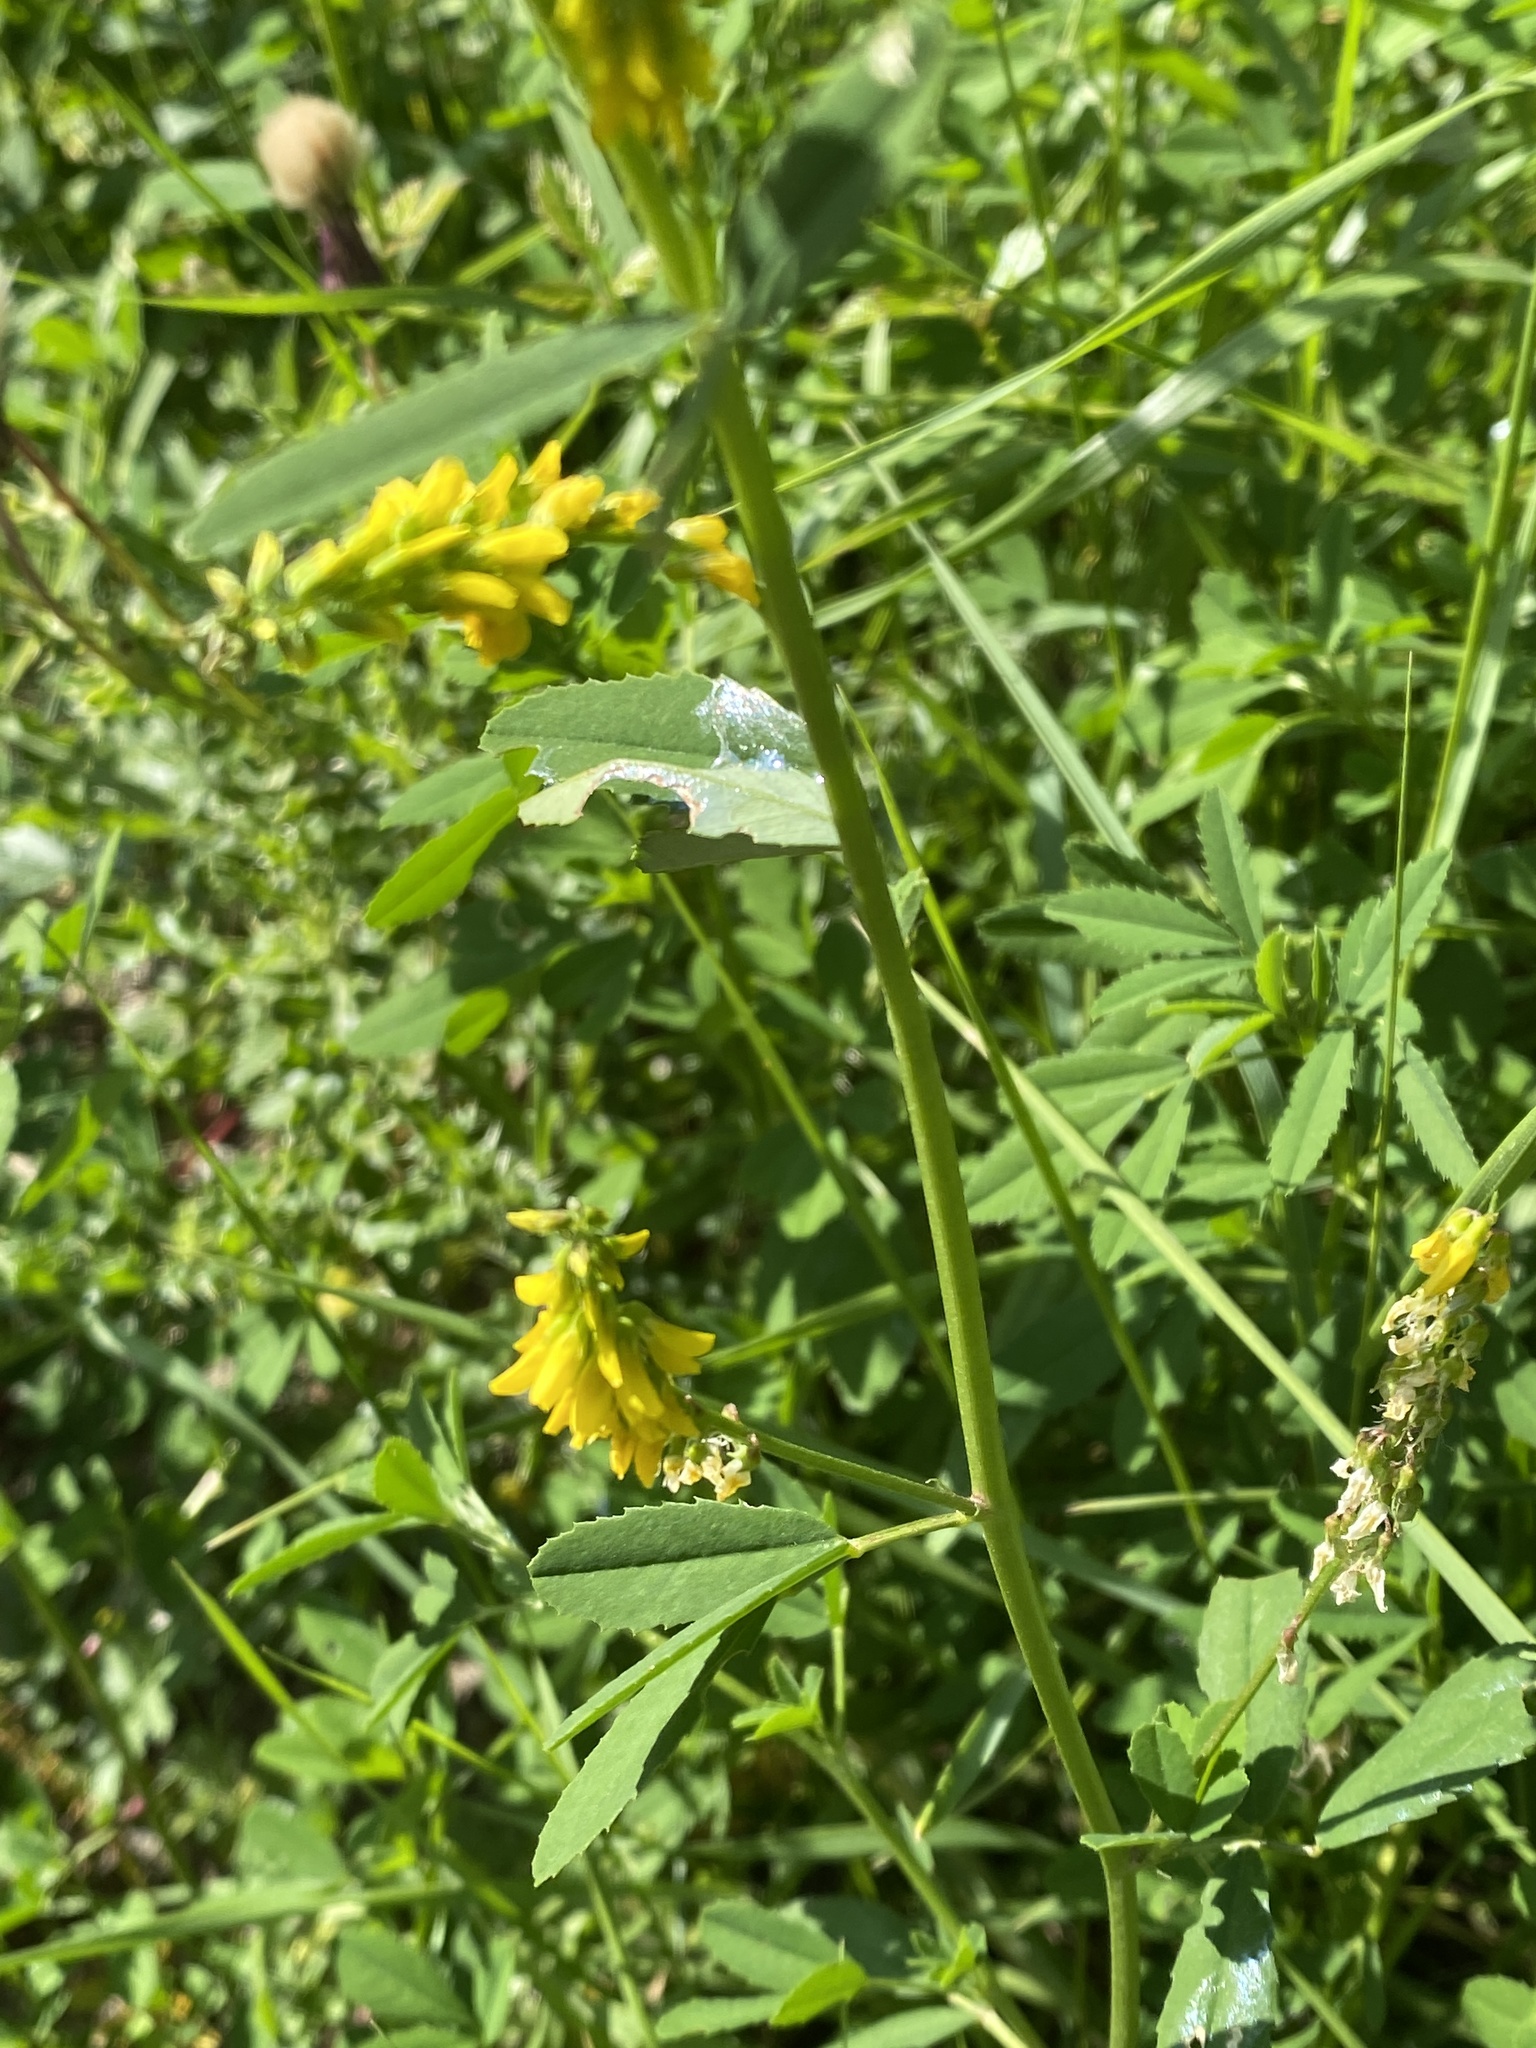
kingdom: Plantae
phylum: Tracheophyta
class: Magnoliopsida
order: Fabales
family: Fabaceae
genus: Melilotus
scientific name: Melilotus officinalis
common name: Sweetclover
